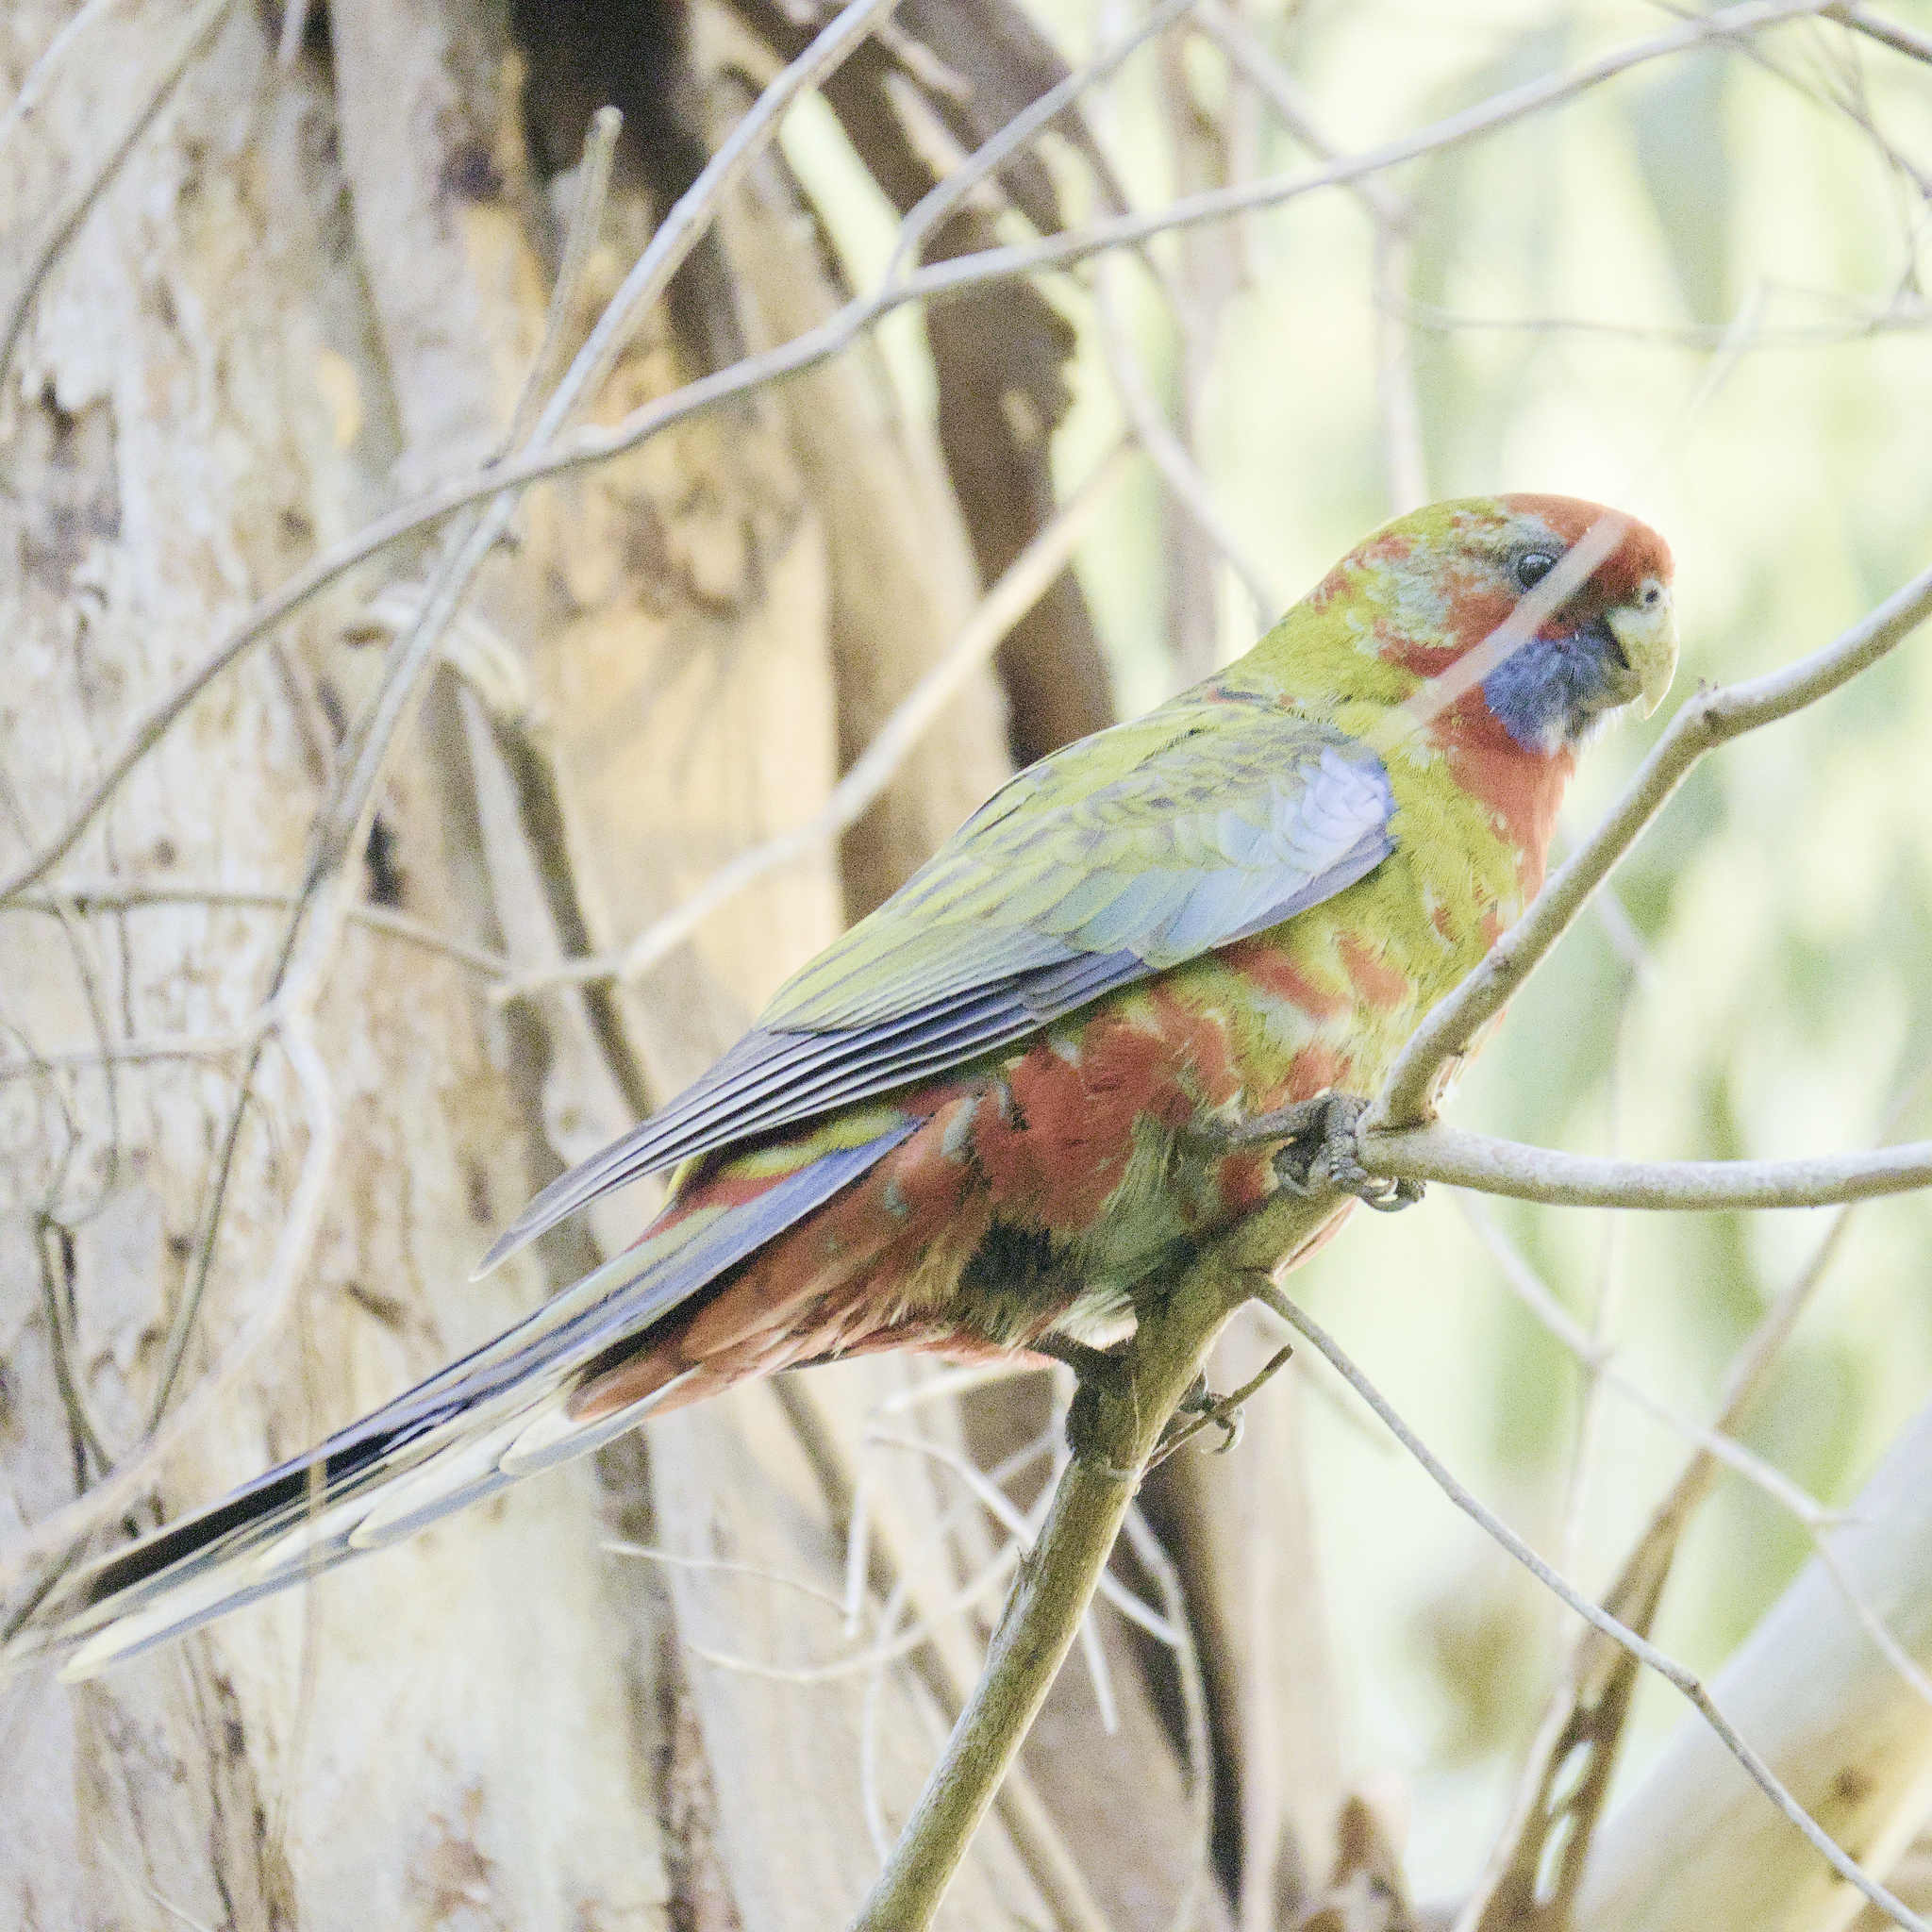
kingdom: Animalia
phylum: Chordata
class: Aves
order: Psittaciformes
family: Psittacidae
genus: Platycercus
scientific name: Platycercus elegans
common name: Crimson rosella
